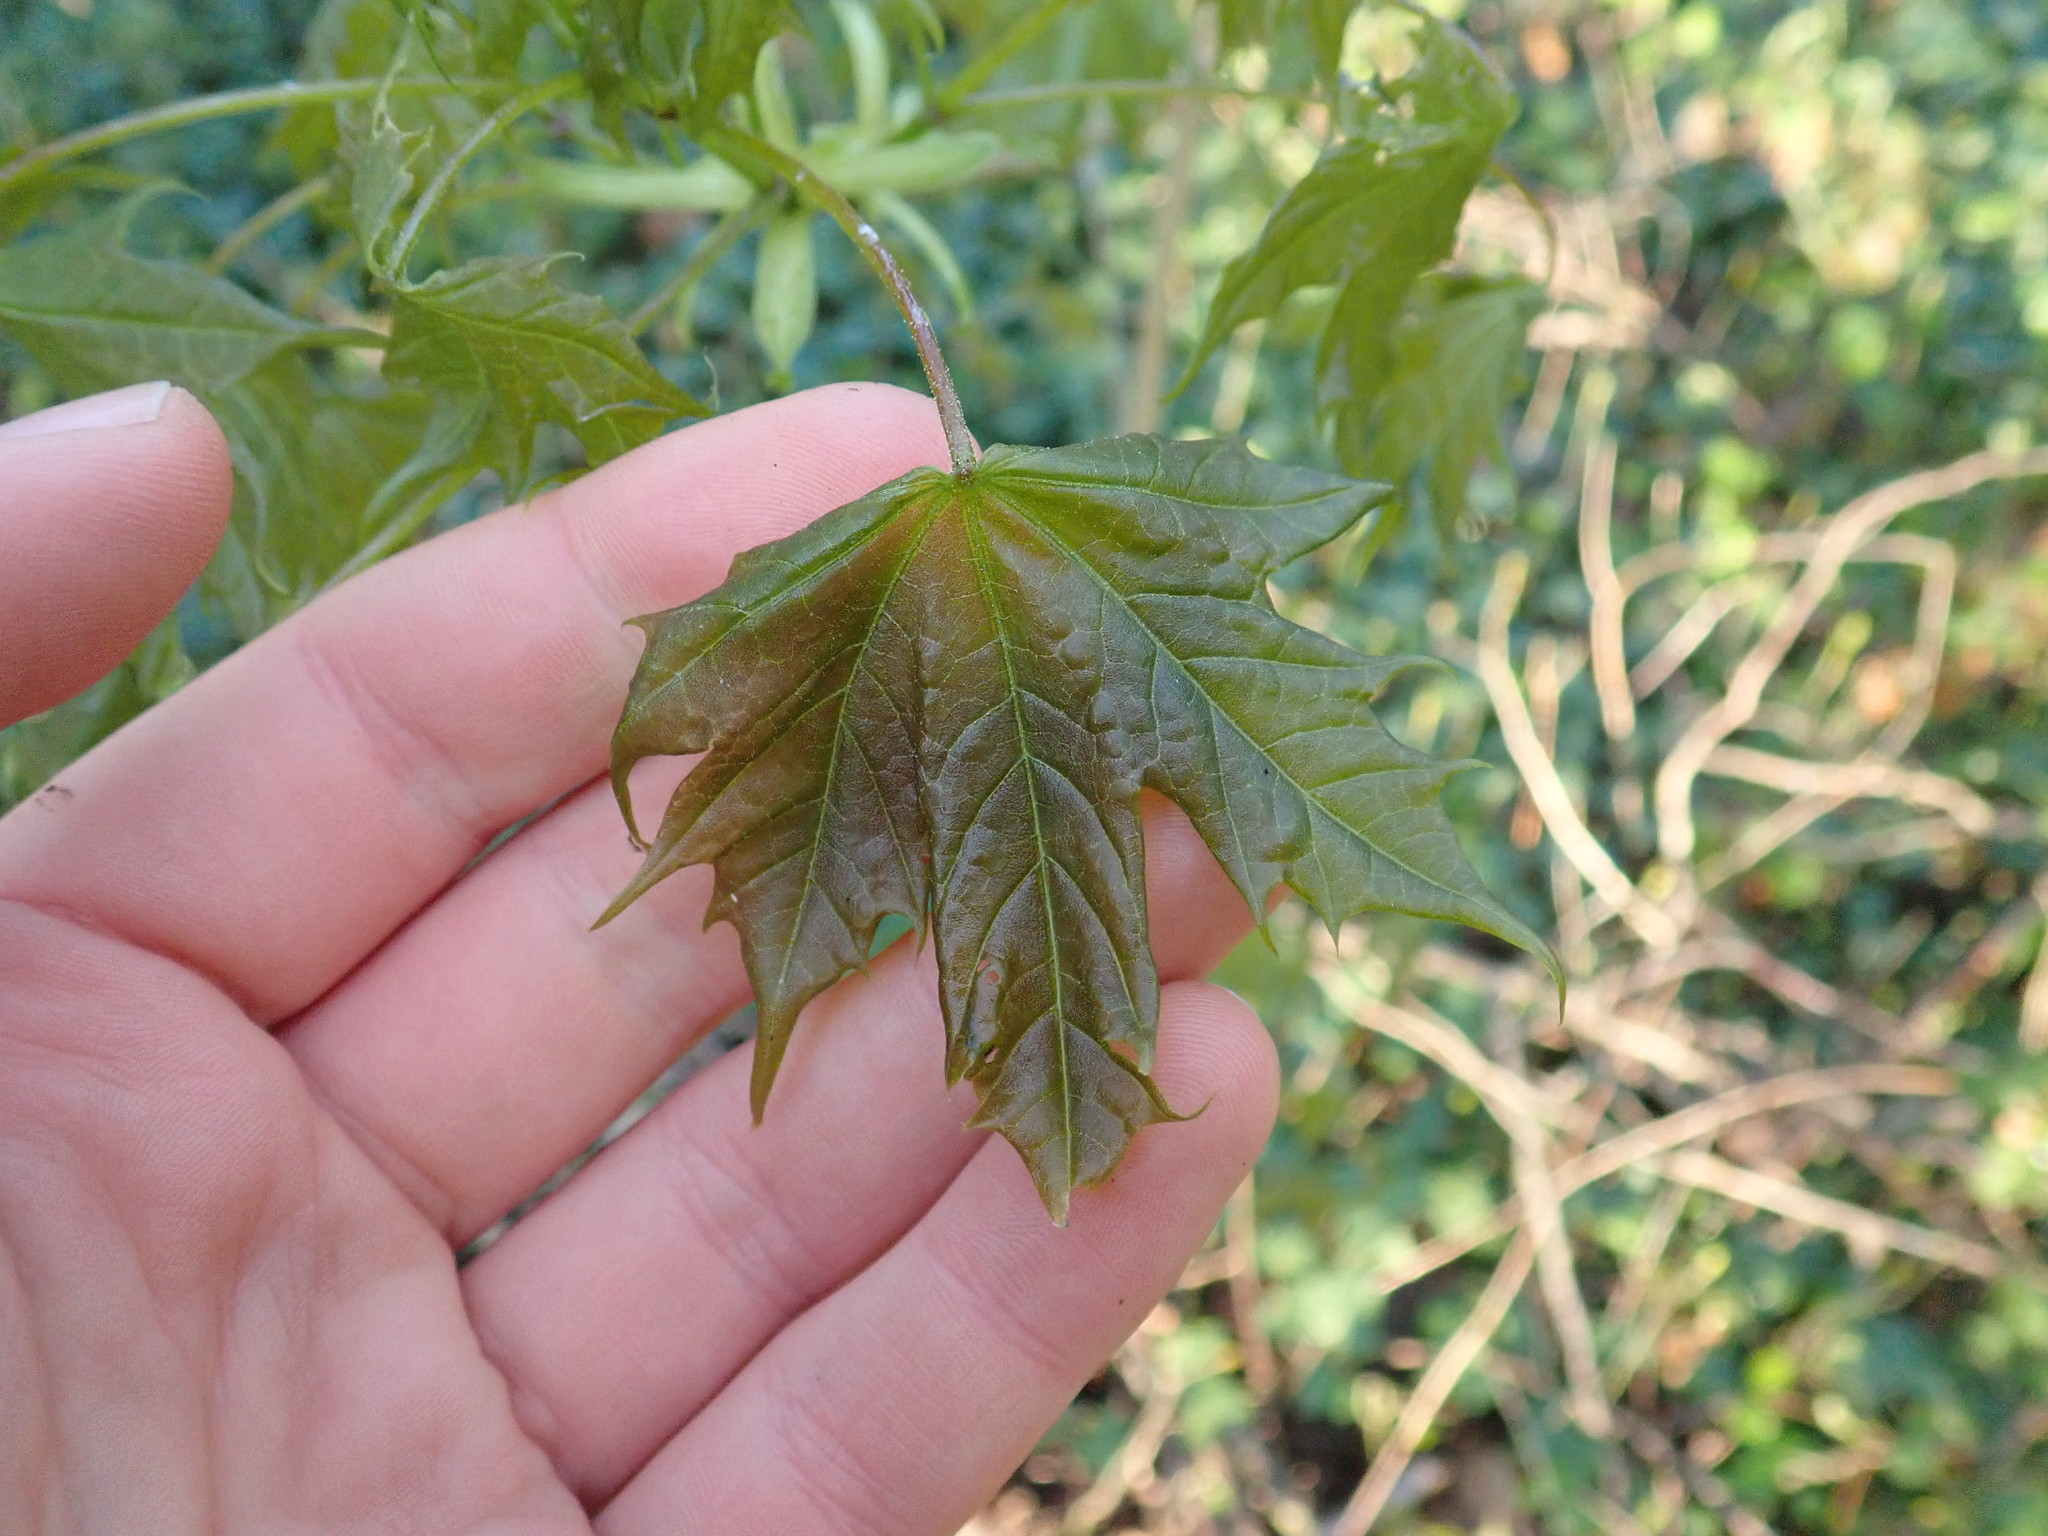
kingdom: Plantae
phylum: Tracheophyta
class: Magnoliopsida
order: Sapindales
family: Sapindaceae
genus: Acer
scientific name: Acer platanoides
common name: Norway maple
